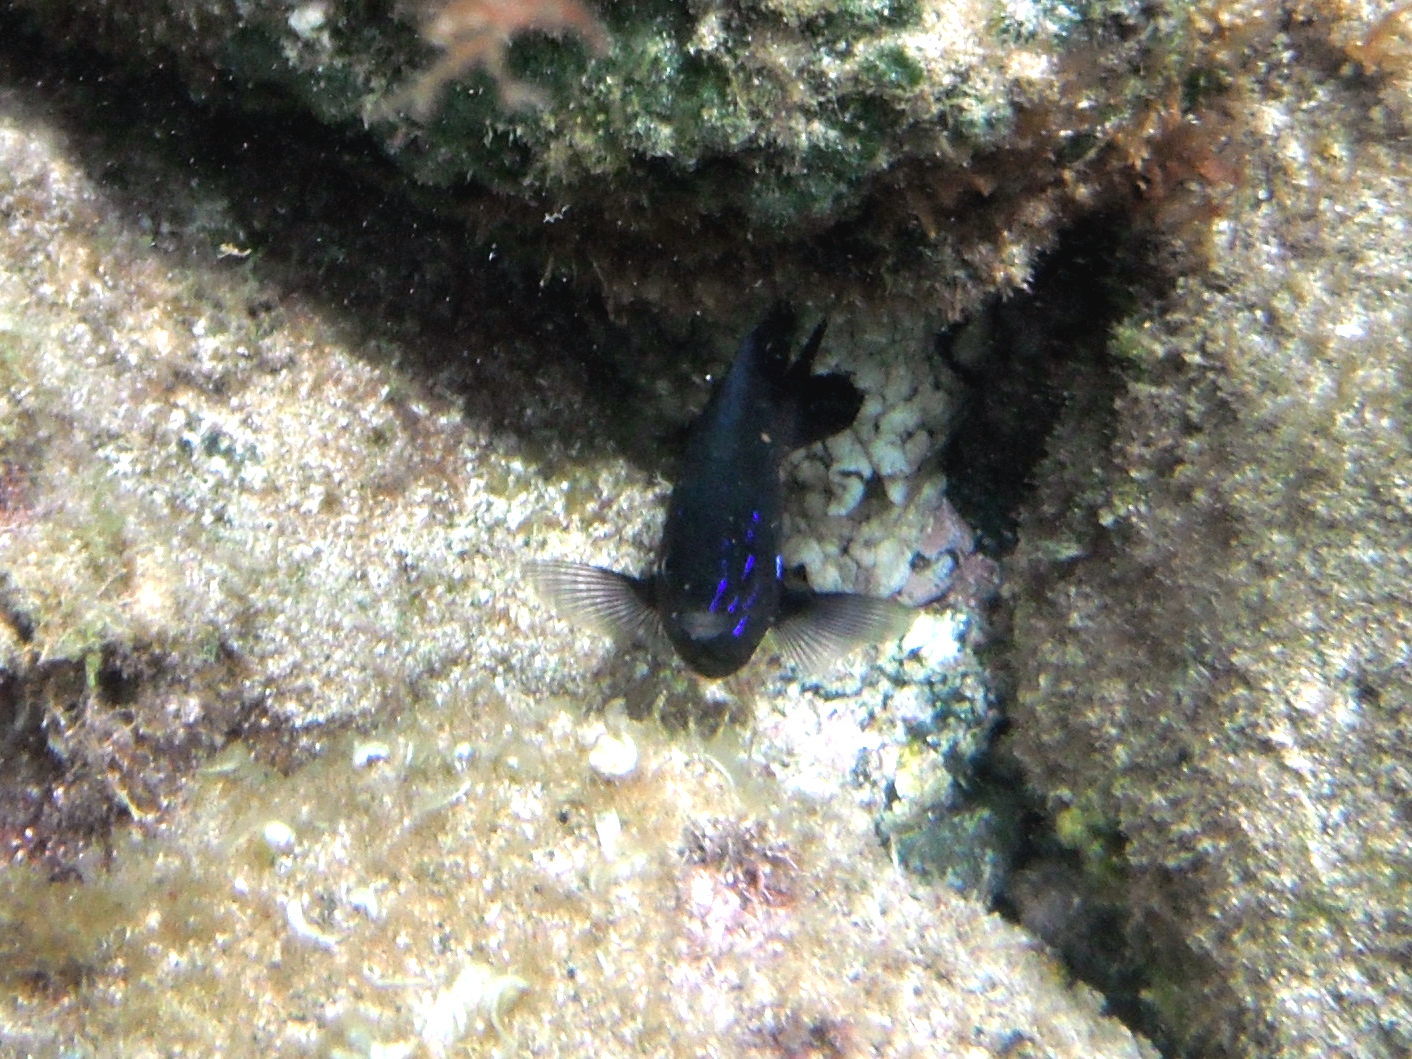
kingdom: Animalia
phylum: Chordata
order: Perciformes
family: Pomacentridae
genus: Similiparma
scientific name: Similiparma lurida
